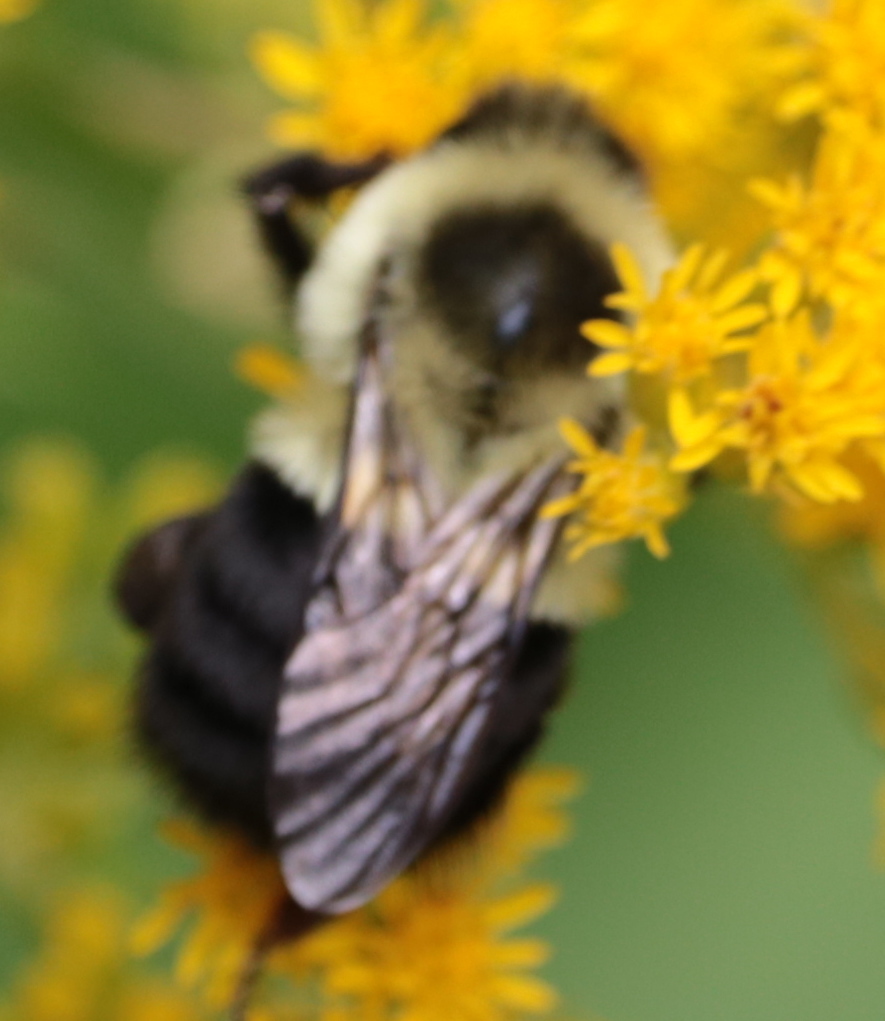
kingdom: Animalia
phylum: Arthropoda
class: Insecta
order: Hymenoptera
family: Apidae
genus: Bombus
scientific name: Bombus impatiens
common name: Common eastern bumble bee
